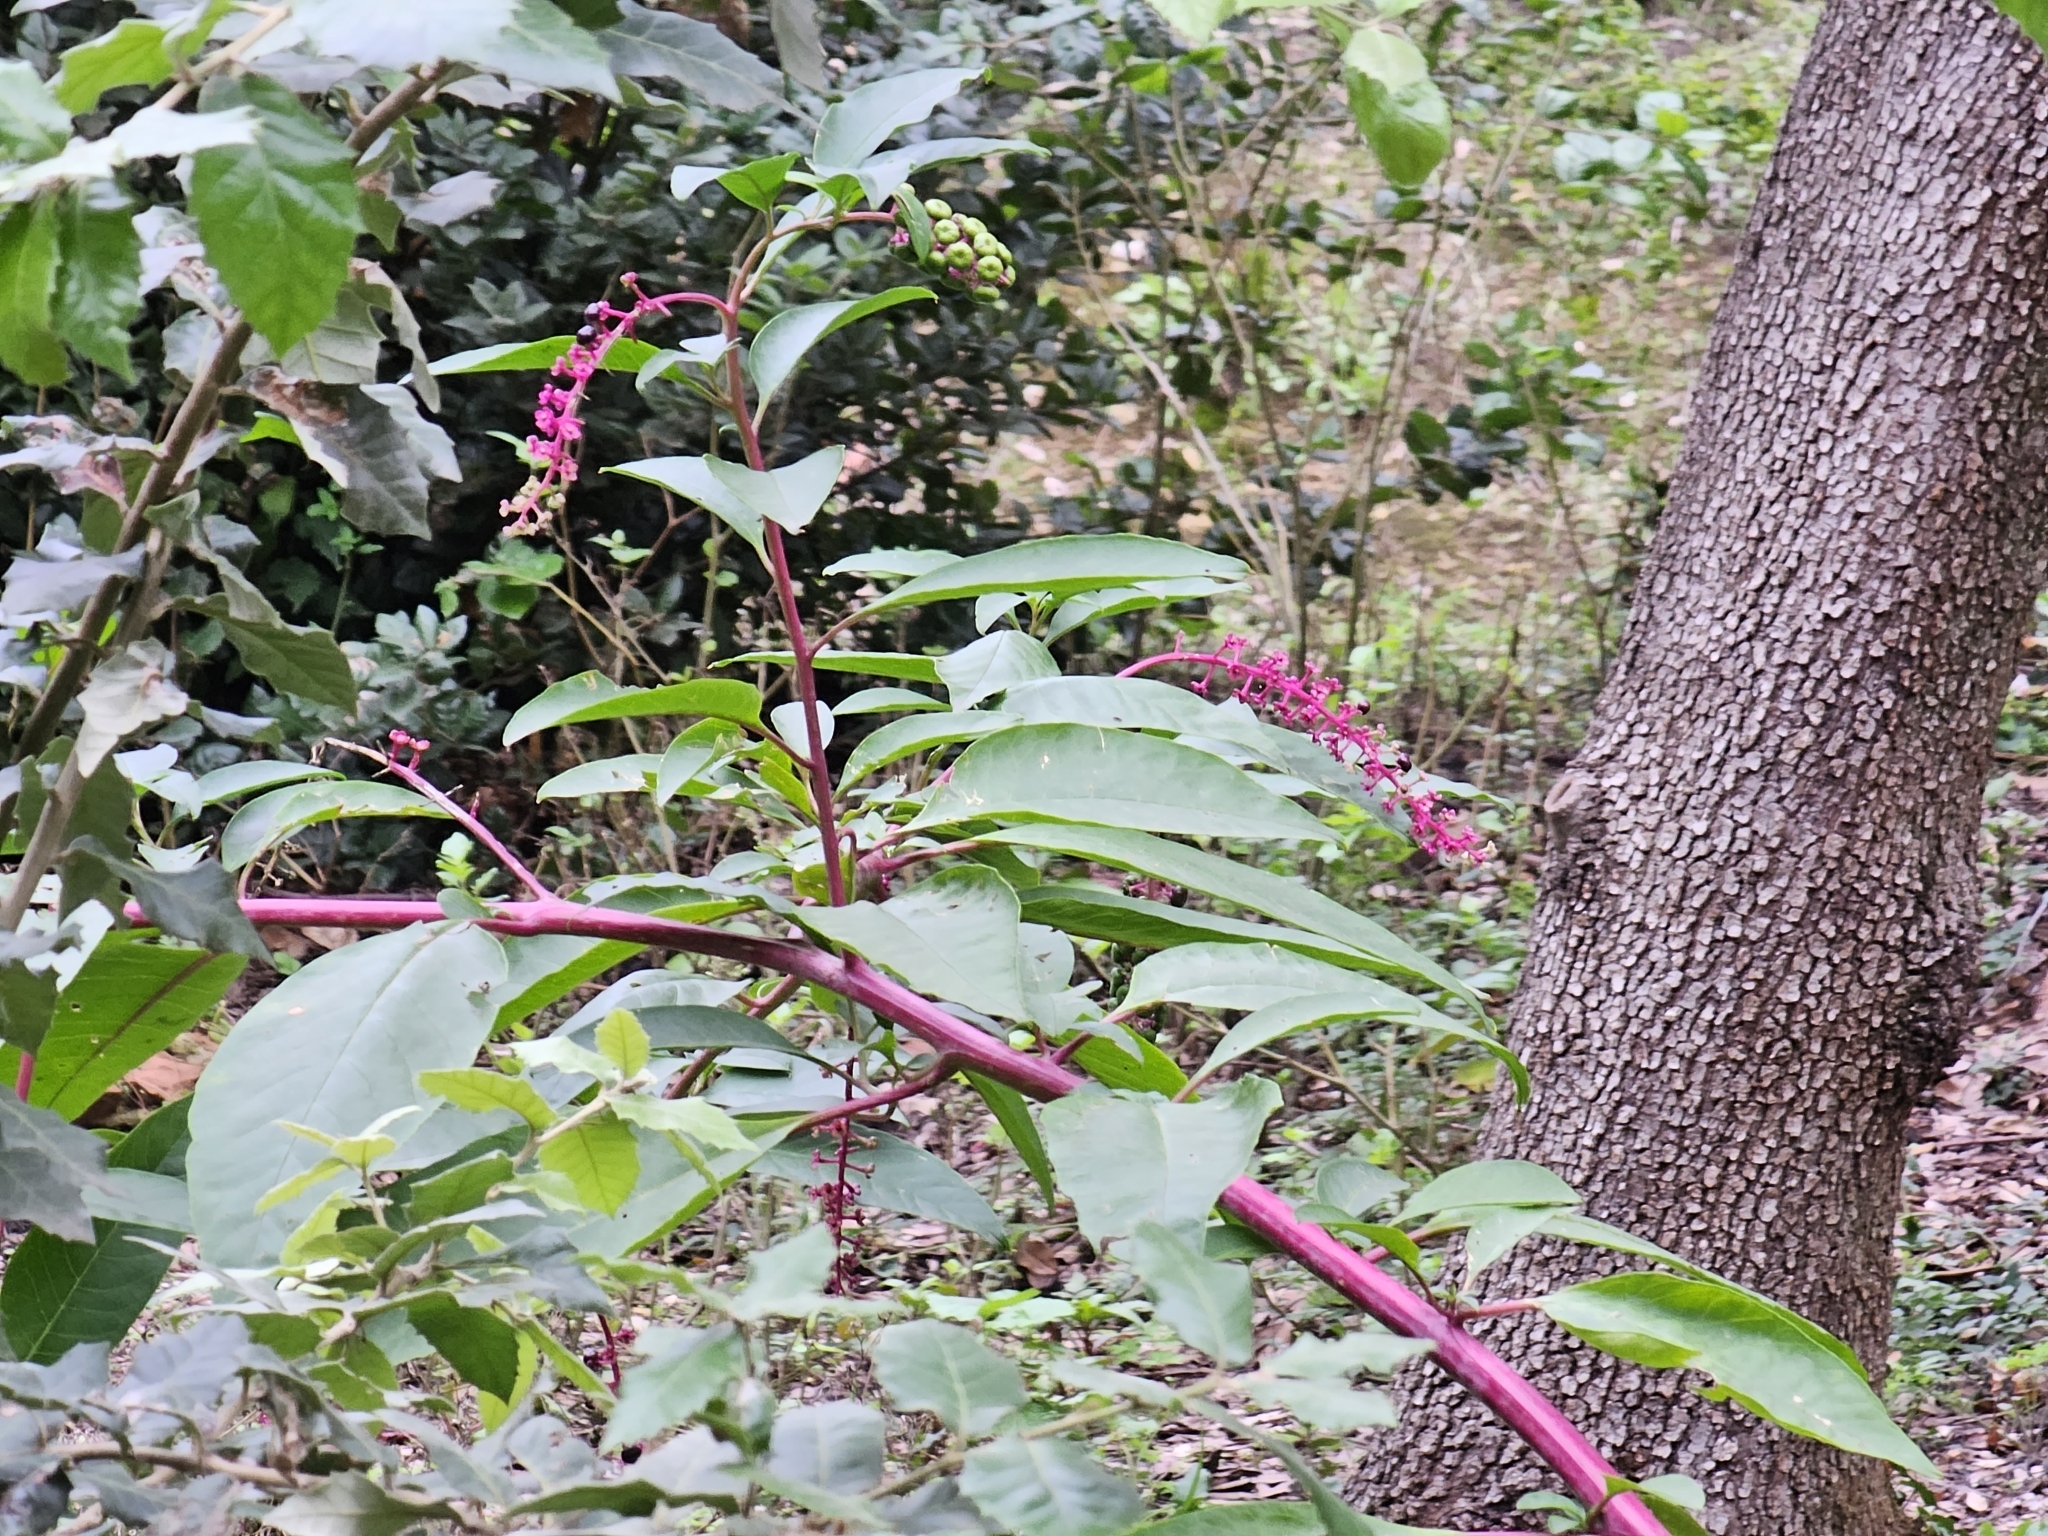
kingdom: Plantae
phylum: Tracheophyta
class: Magnoliopsida
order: Caryophyllales
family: Phytolaccaceae
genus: Phytolacca
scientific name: Phytolacca americana
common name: American pokeweed
